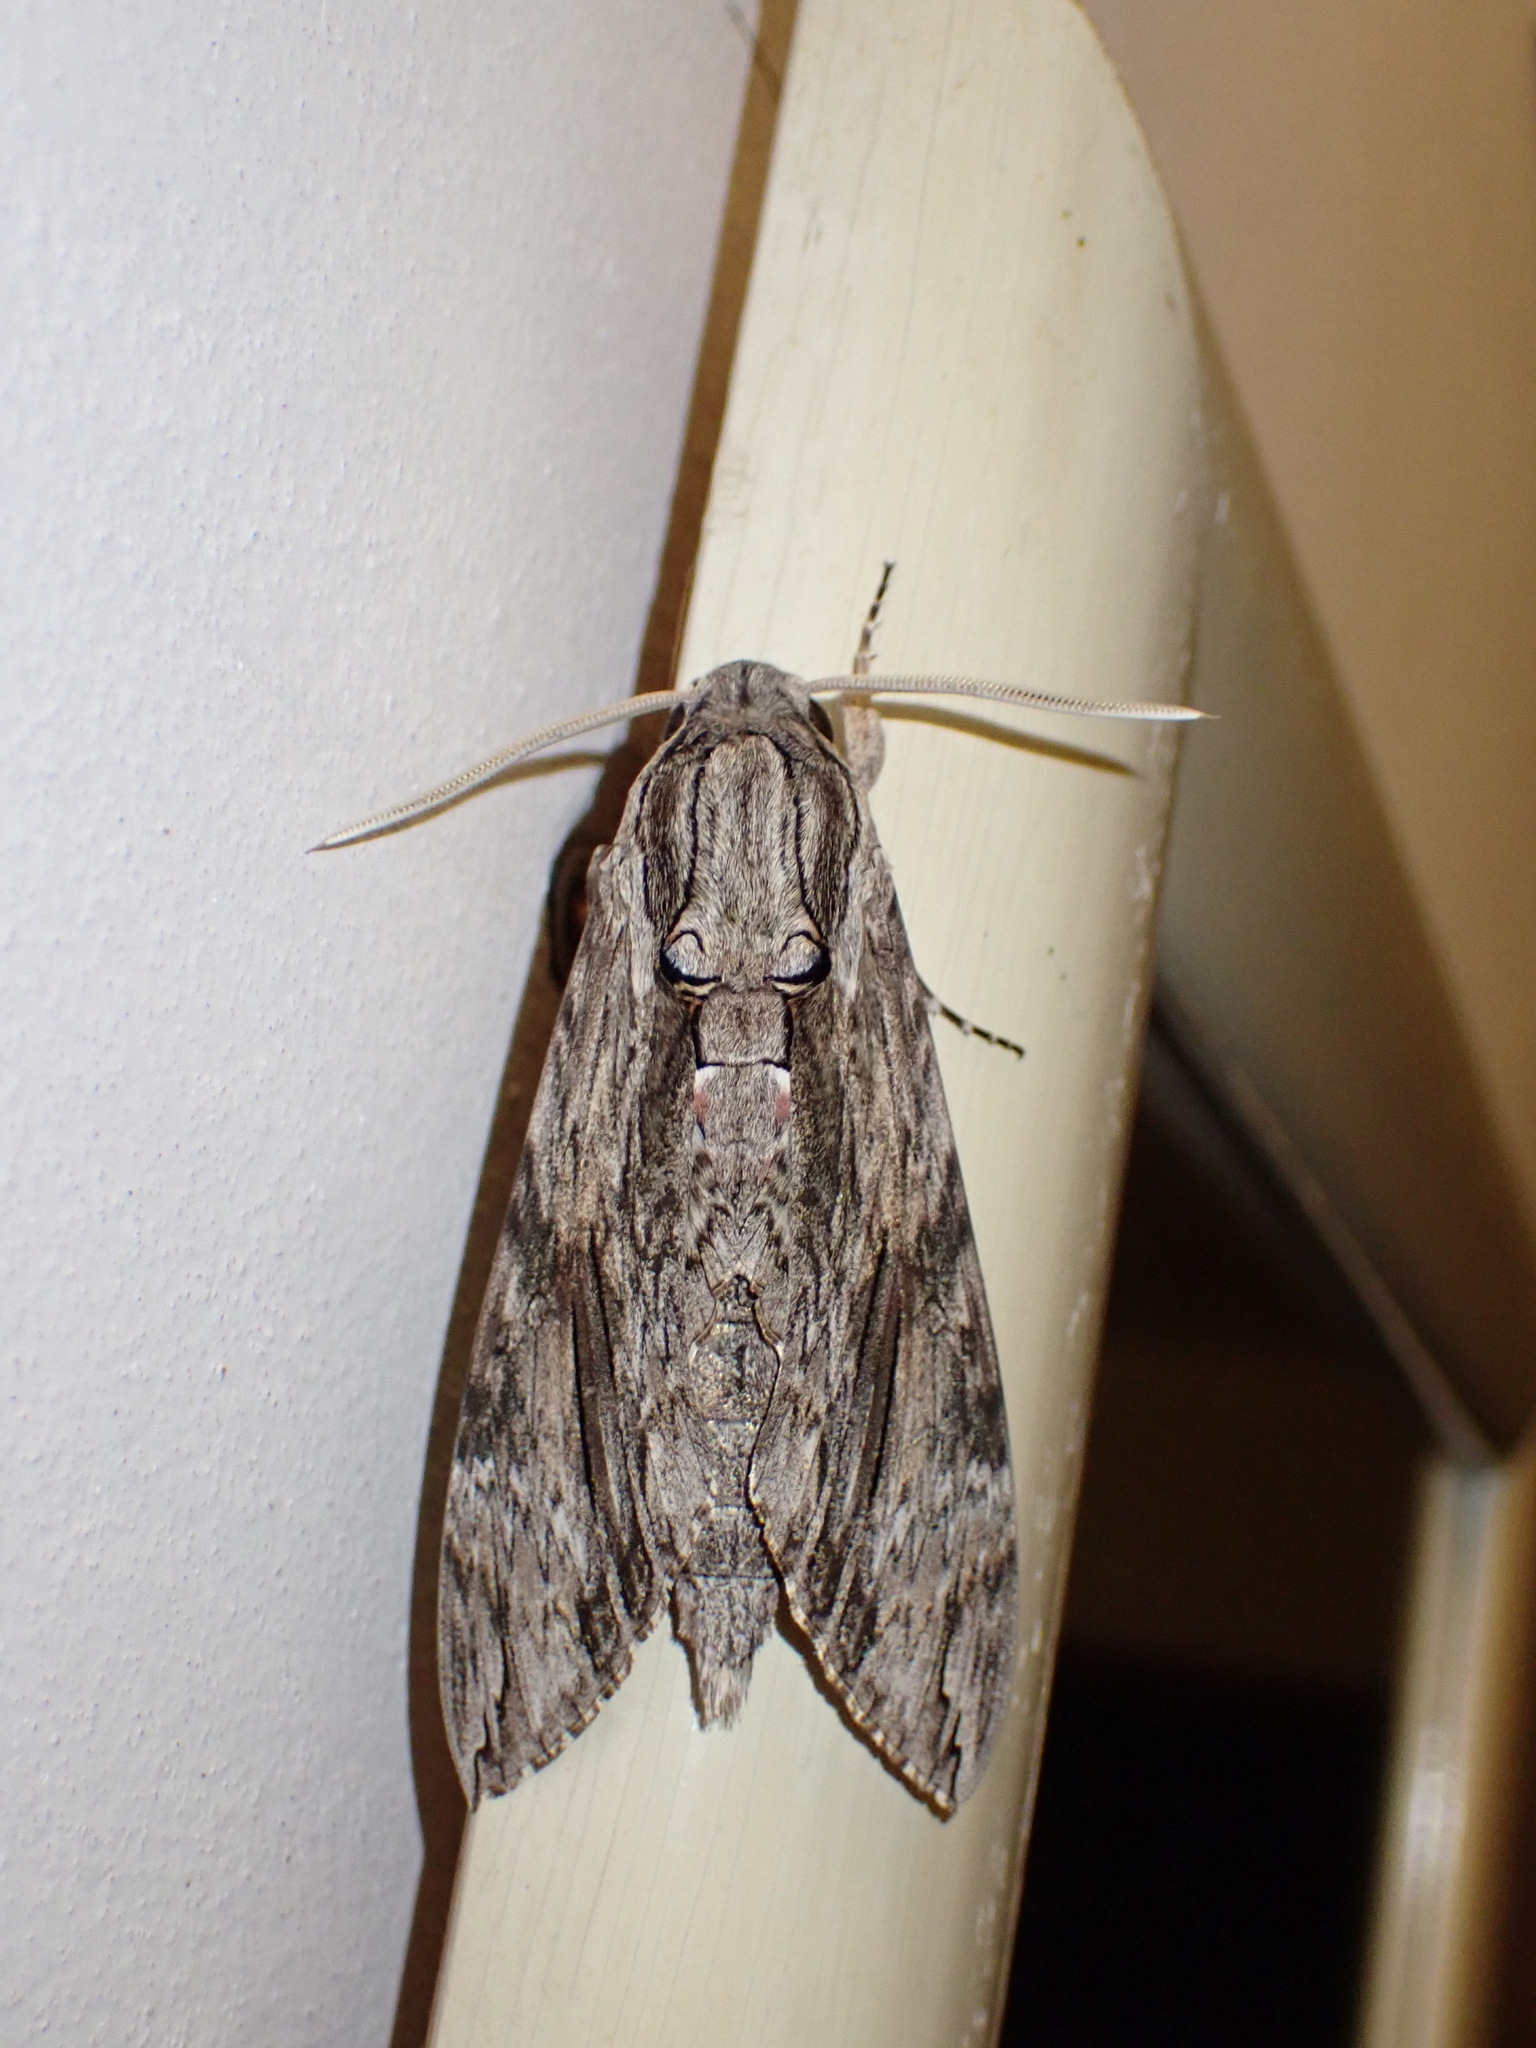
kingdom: Animalia
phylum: Arthropoda
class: Insecta
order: Lepidoptera
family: Sphingidae
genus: Agrius
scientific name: Agrius convolvuli
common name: Convolvulus hawkmoth
